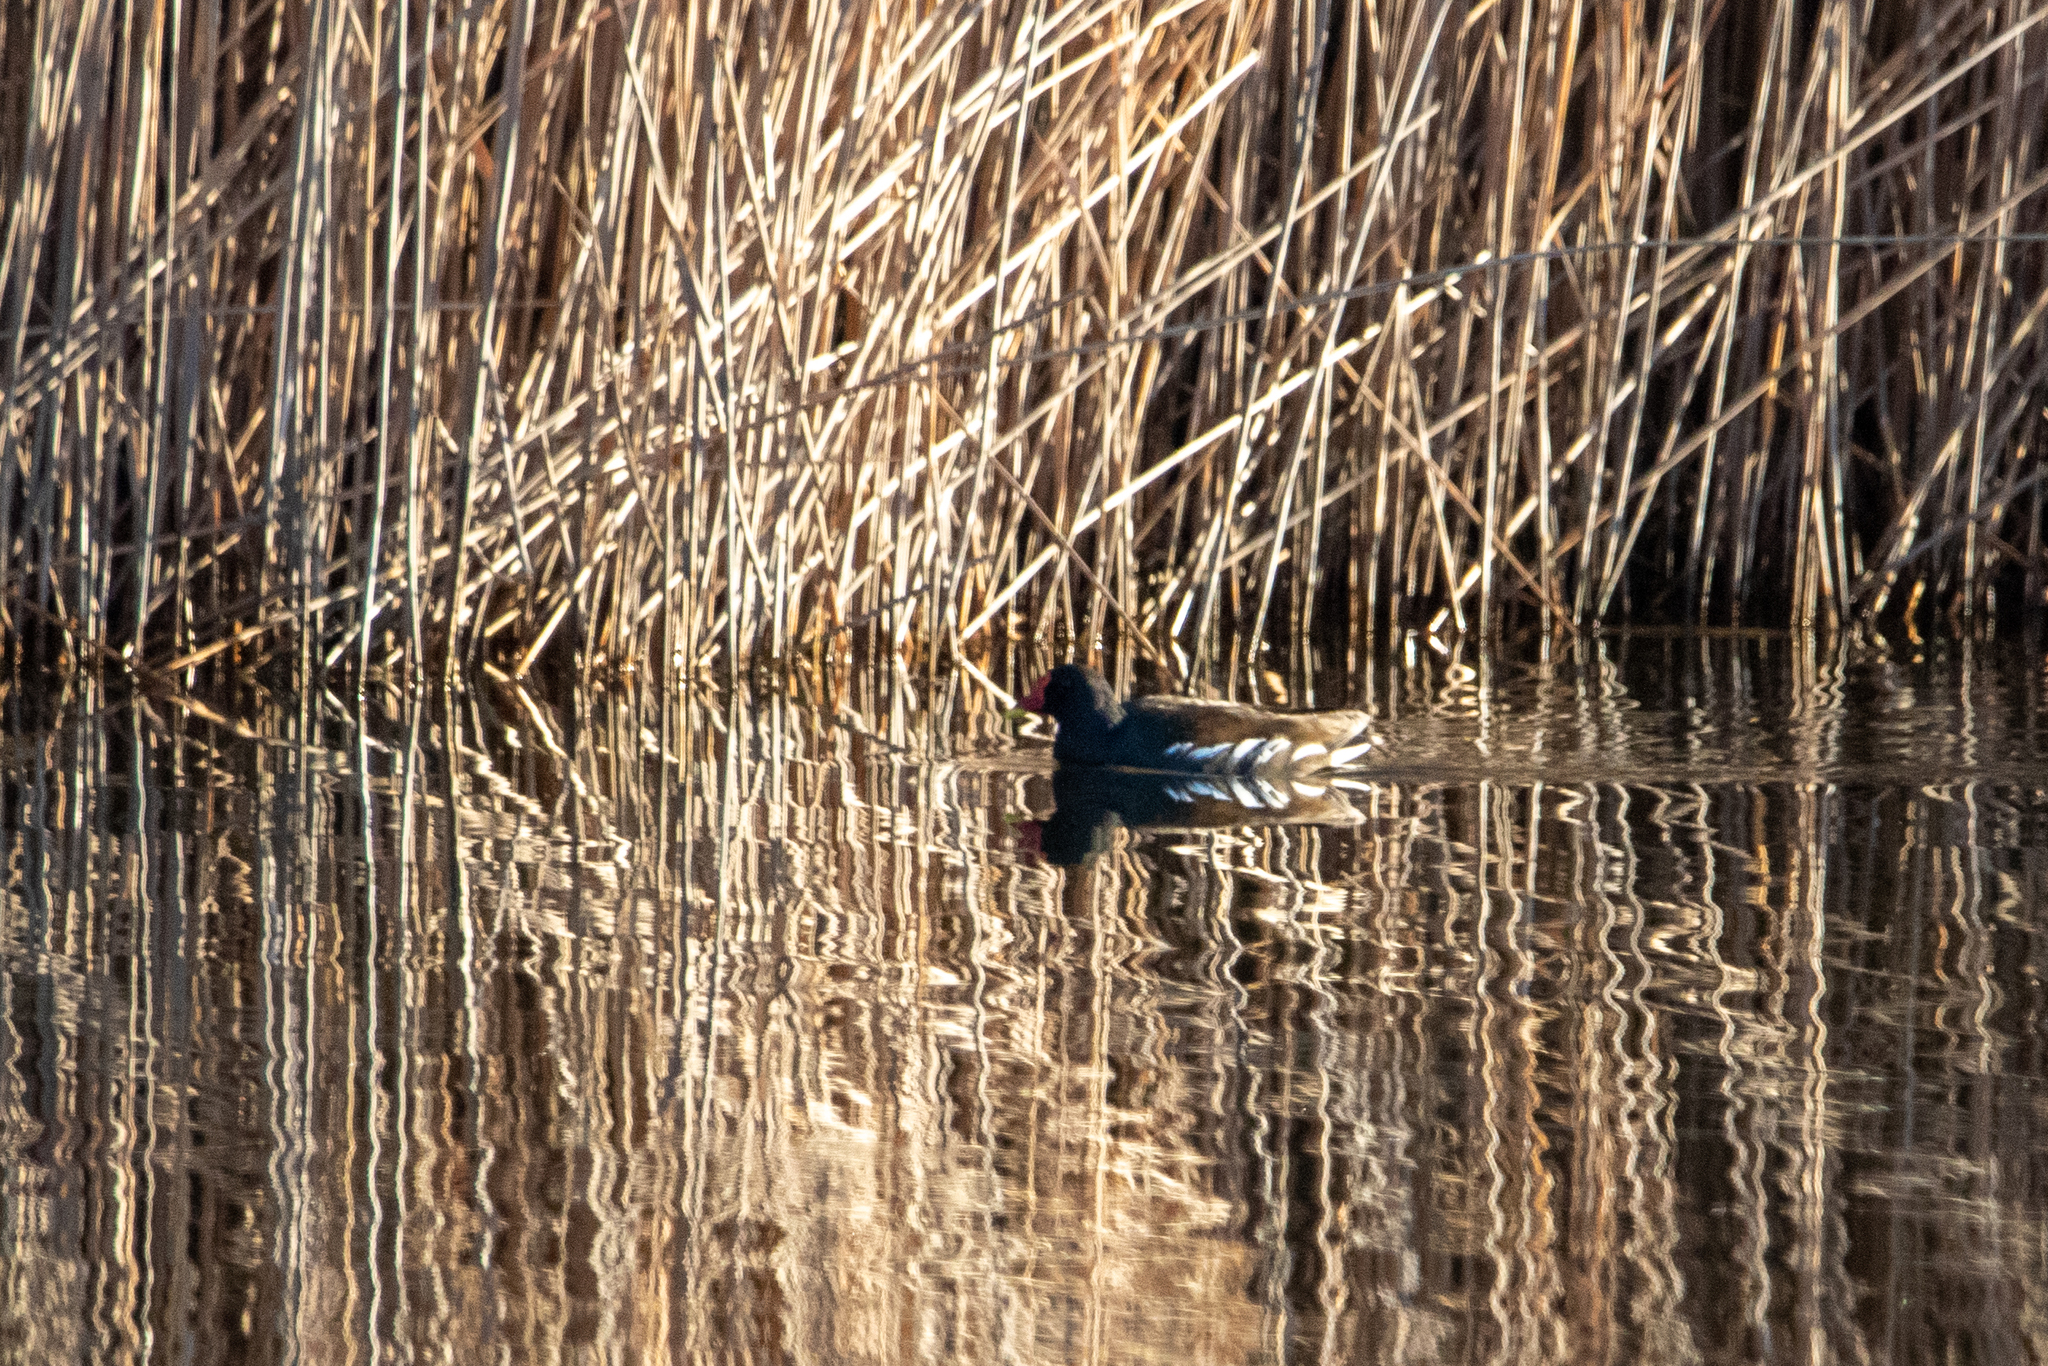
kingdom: Animalia
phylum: Chordata
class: Aves
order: Gruiformes
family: Rallidae
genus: Gallinula
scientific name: Gallinula chloropus
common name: Common moorhen
